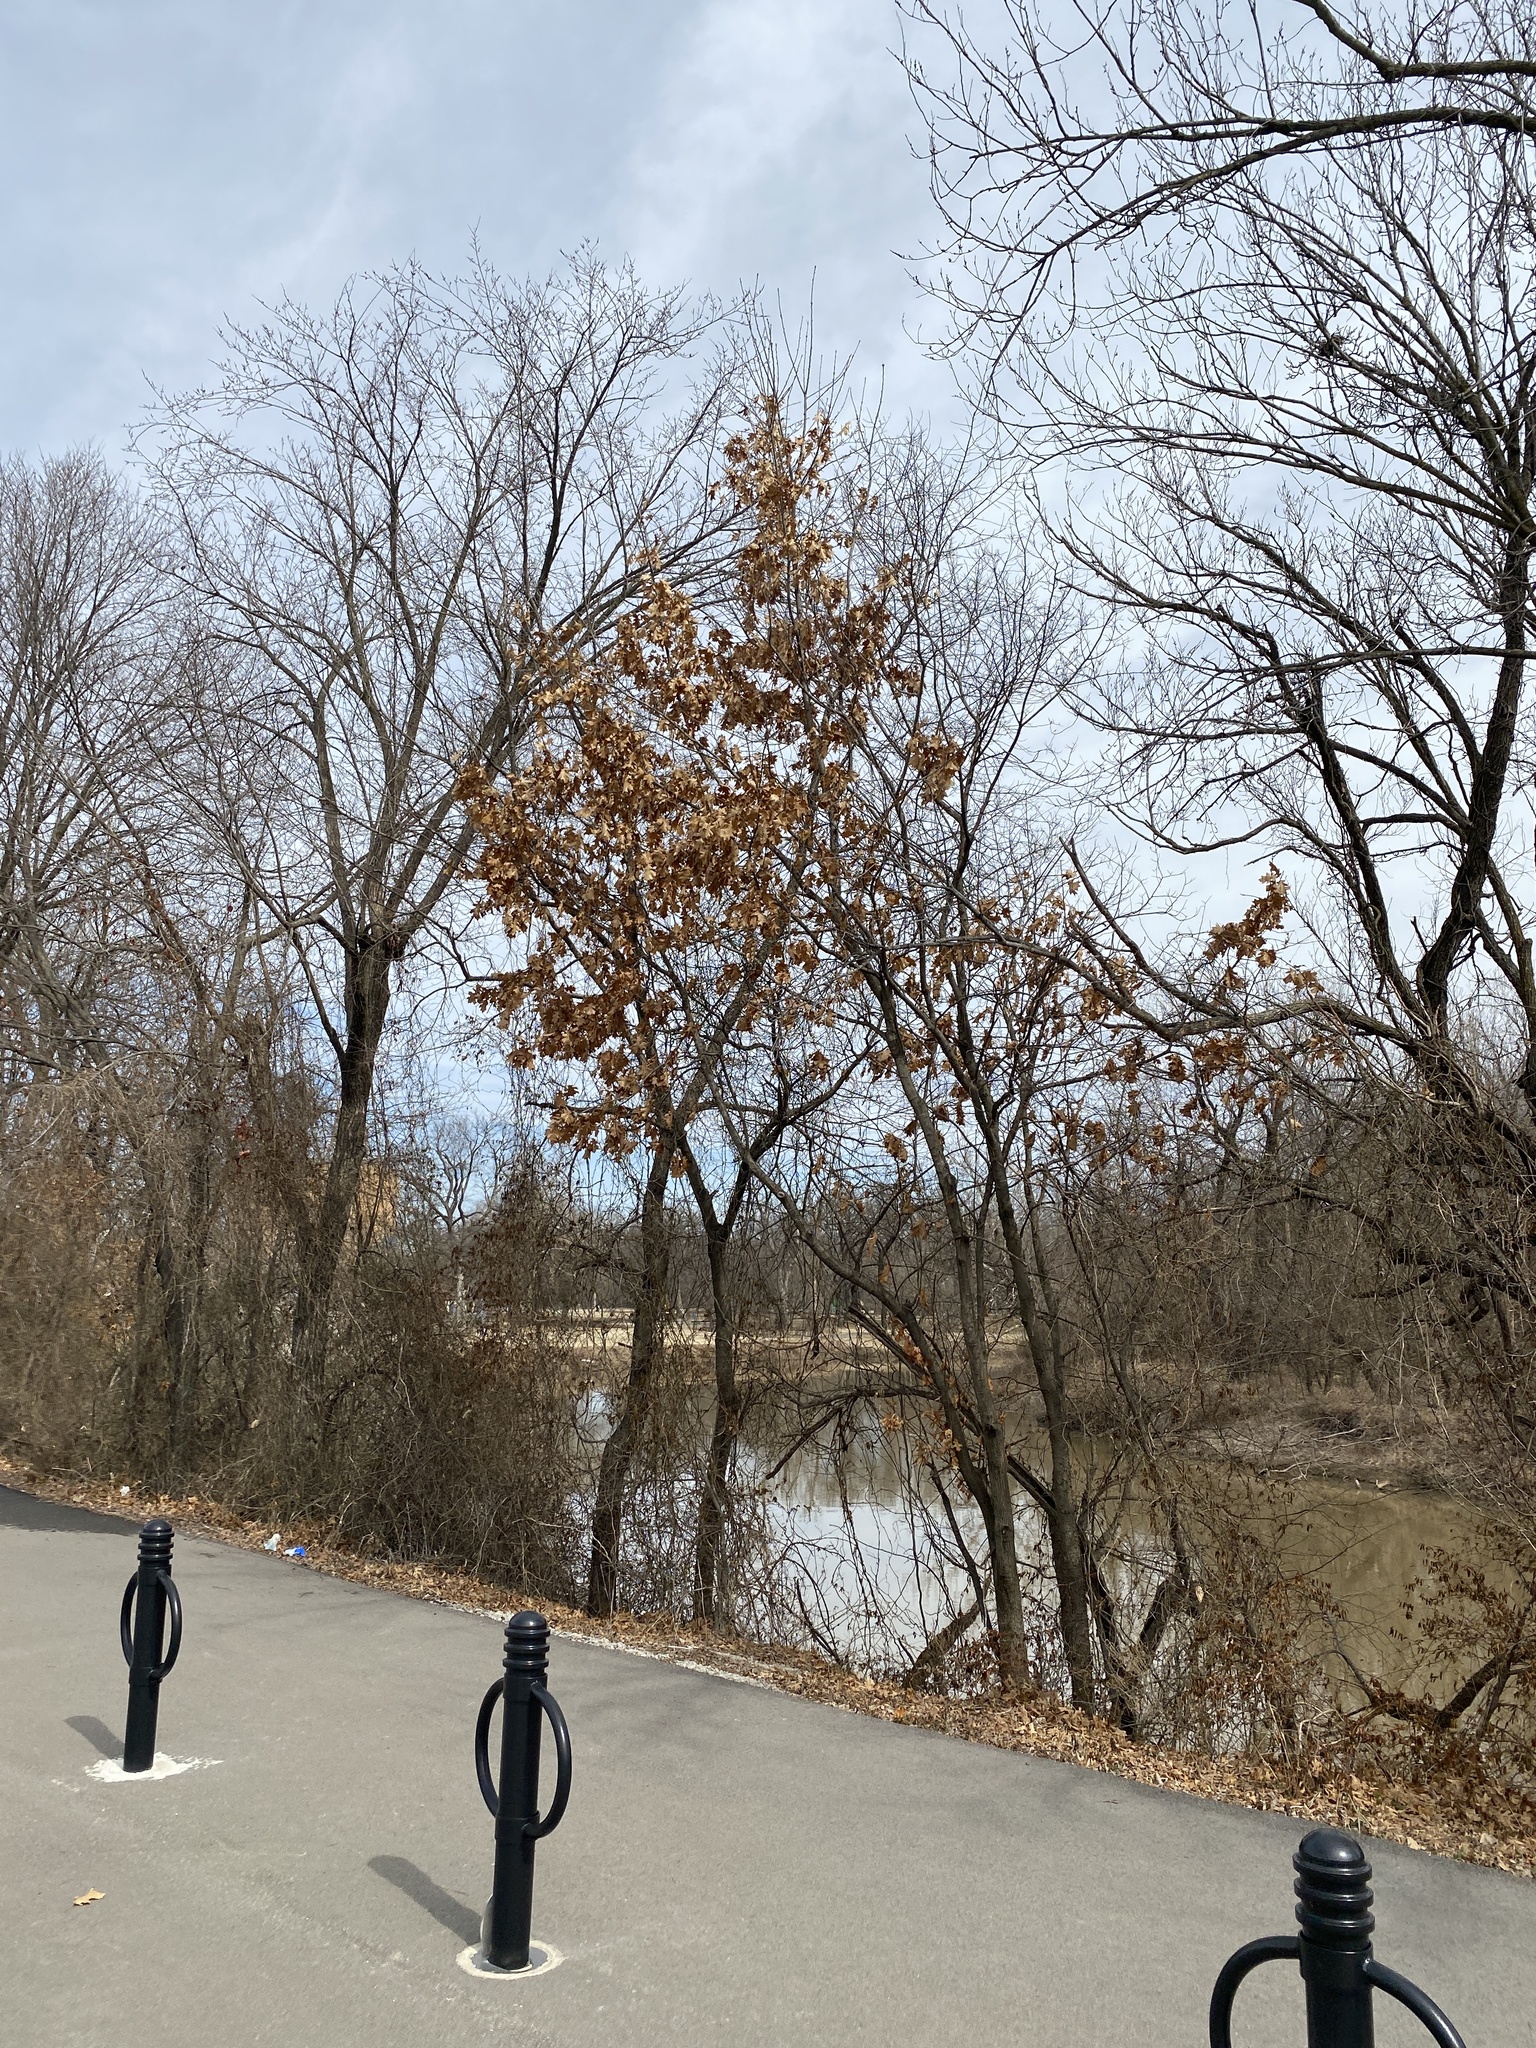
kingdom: Plantae
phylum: Tracheophyta
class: Magnoliopsida
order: Fagales
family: Fagaceae
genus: Quercus
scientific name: Quercus rubra
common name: Red oak
